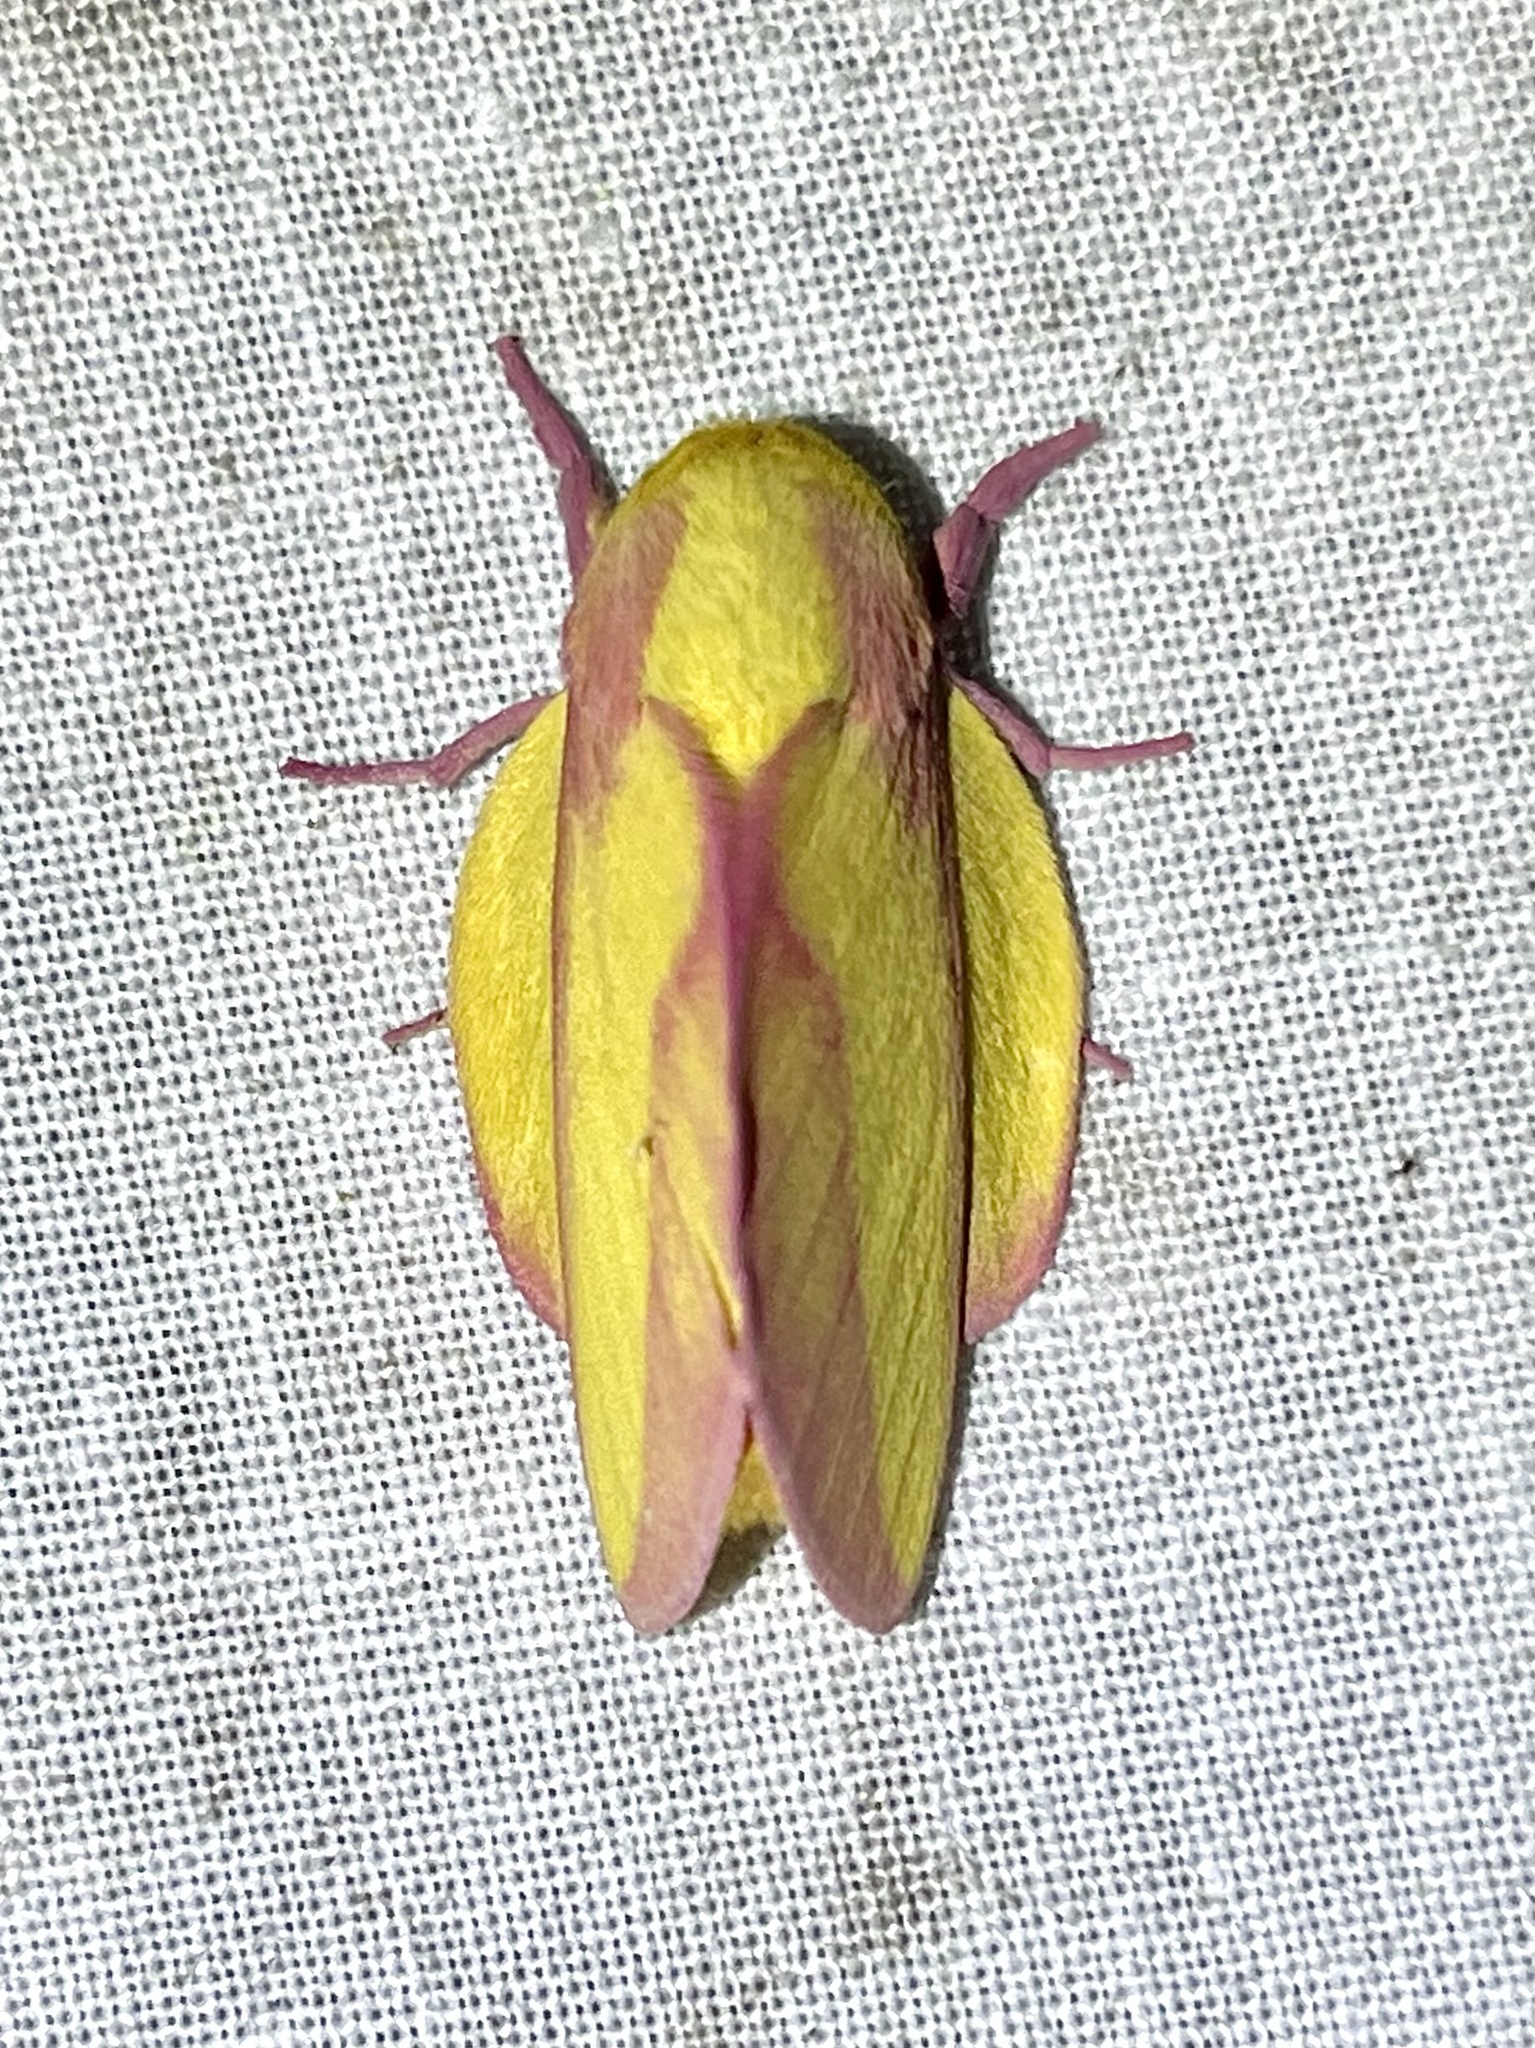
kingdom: Animalia
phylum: Arthropoda
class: Insecta
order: Lepidoptera
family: Saturniidae
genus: Psilopygida
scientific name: Psilopygida apollinairei
